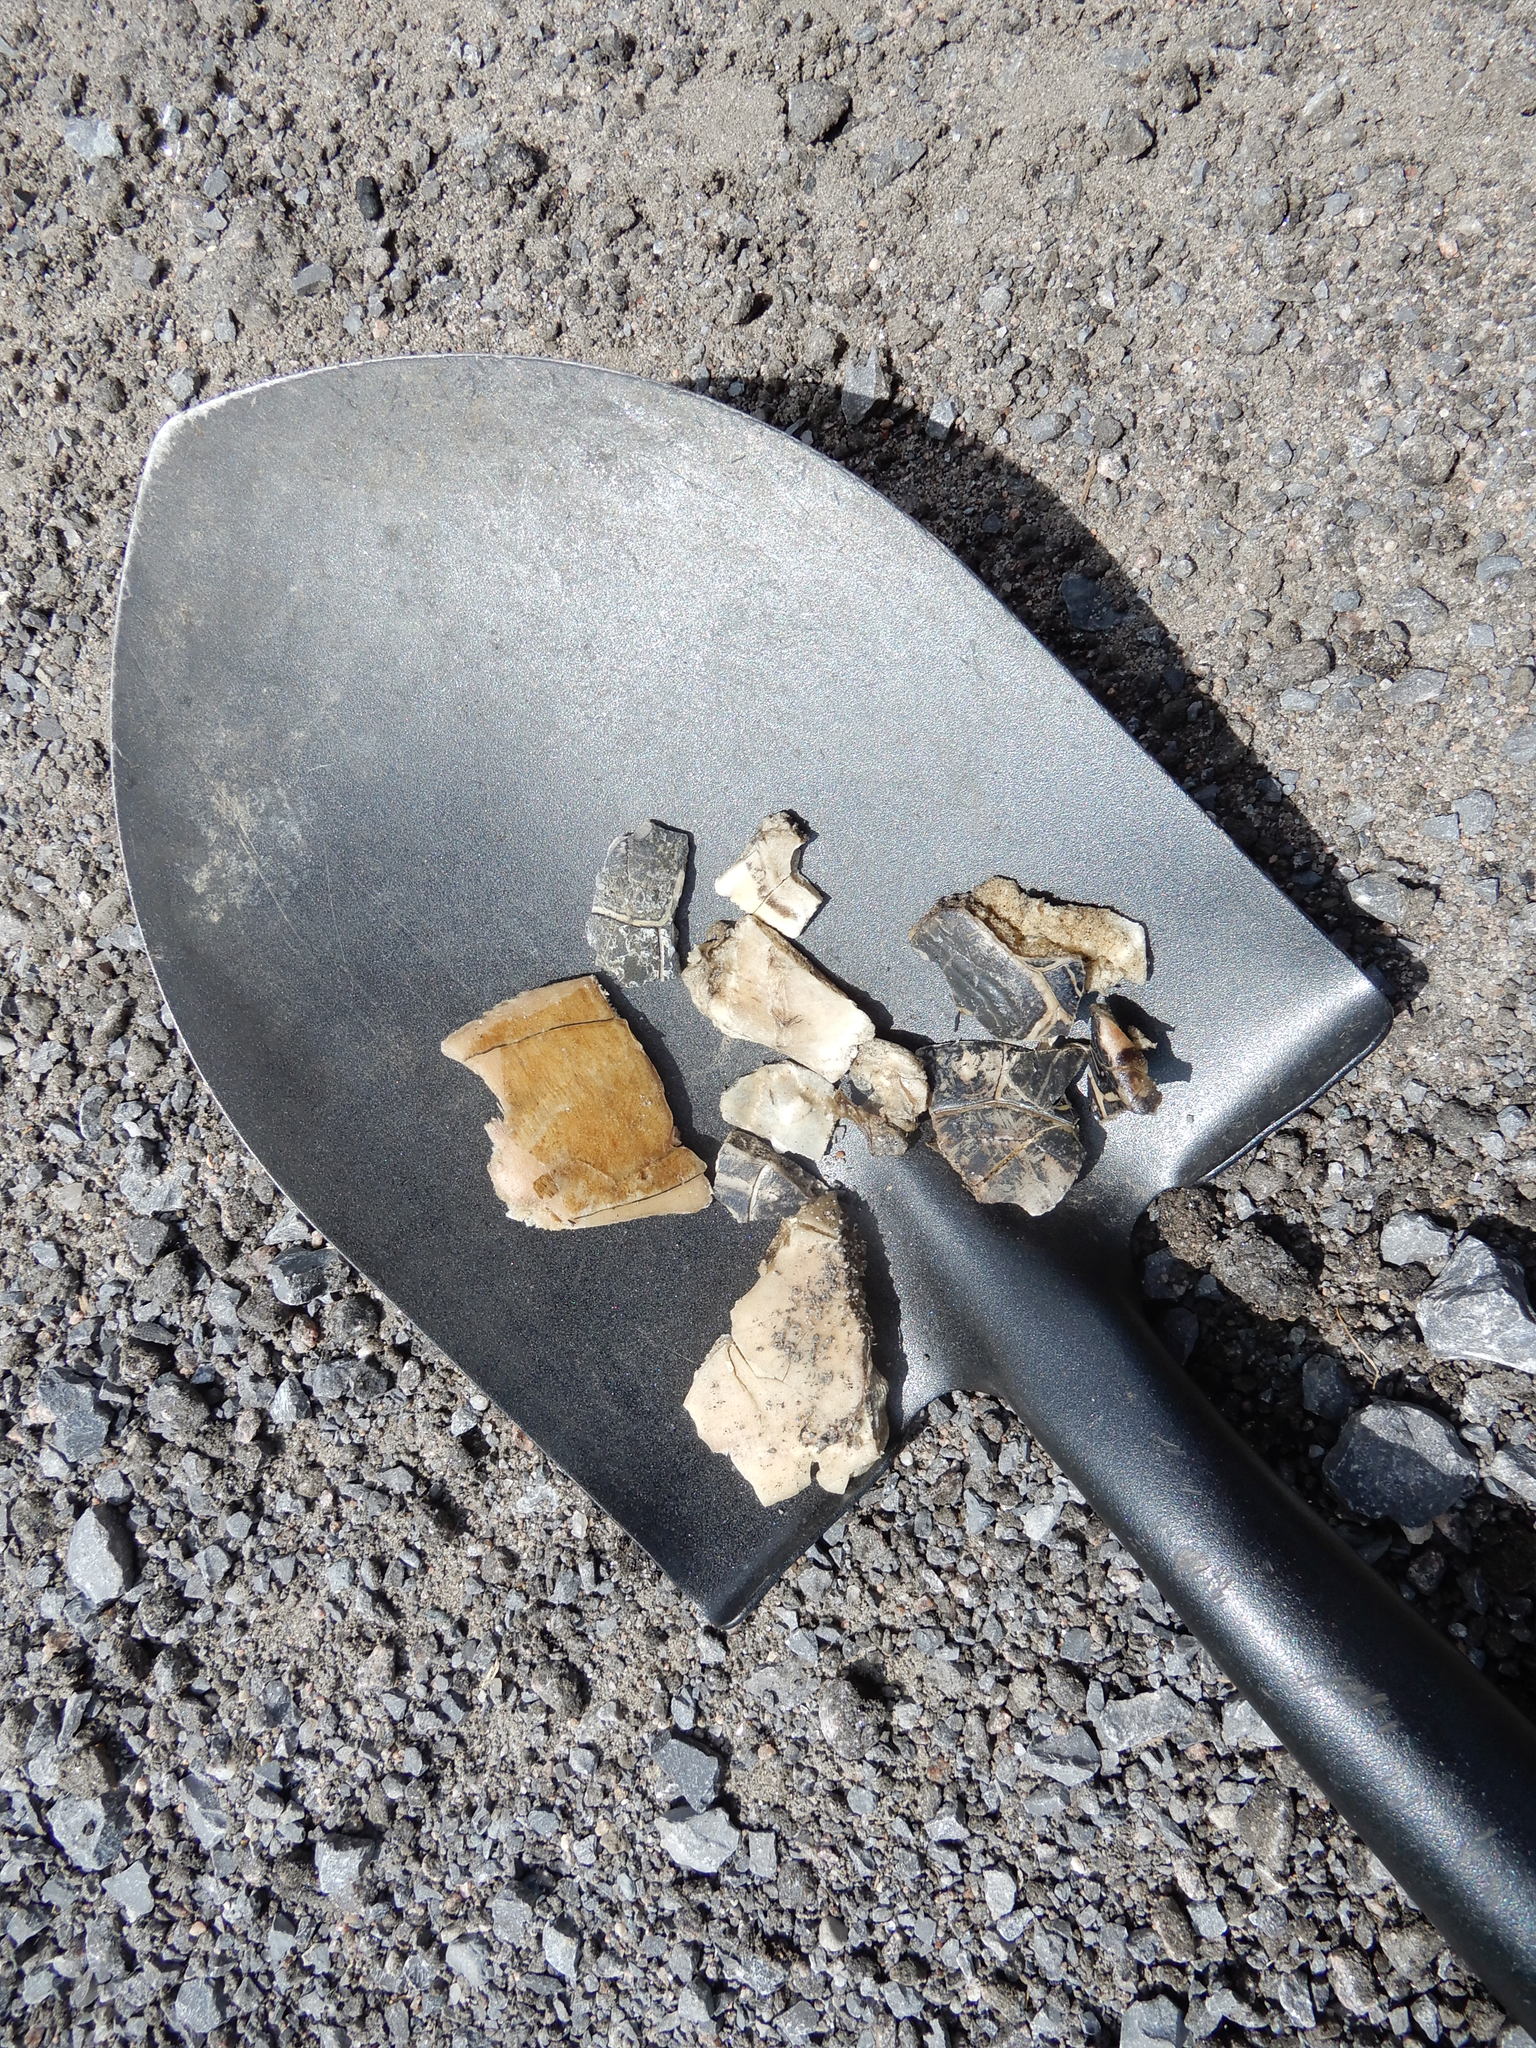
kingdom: Animalia
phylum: Chordata
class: Testudines
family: Emydidae
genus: Chrysemys
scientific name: Chrysemys picta
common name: Painted turtle
